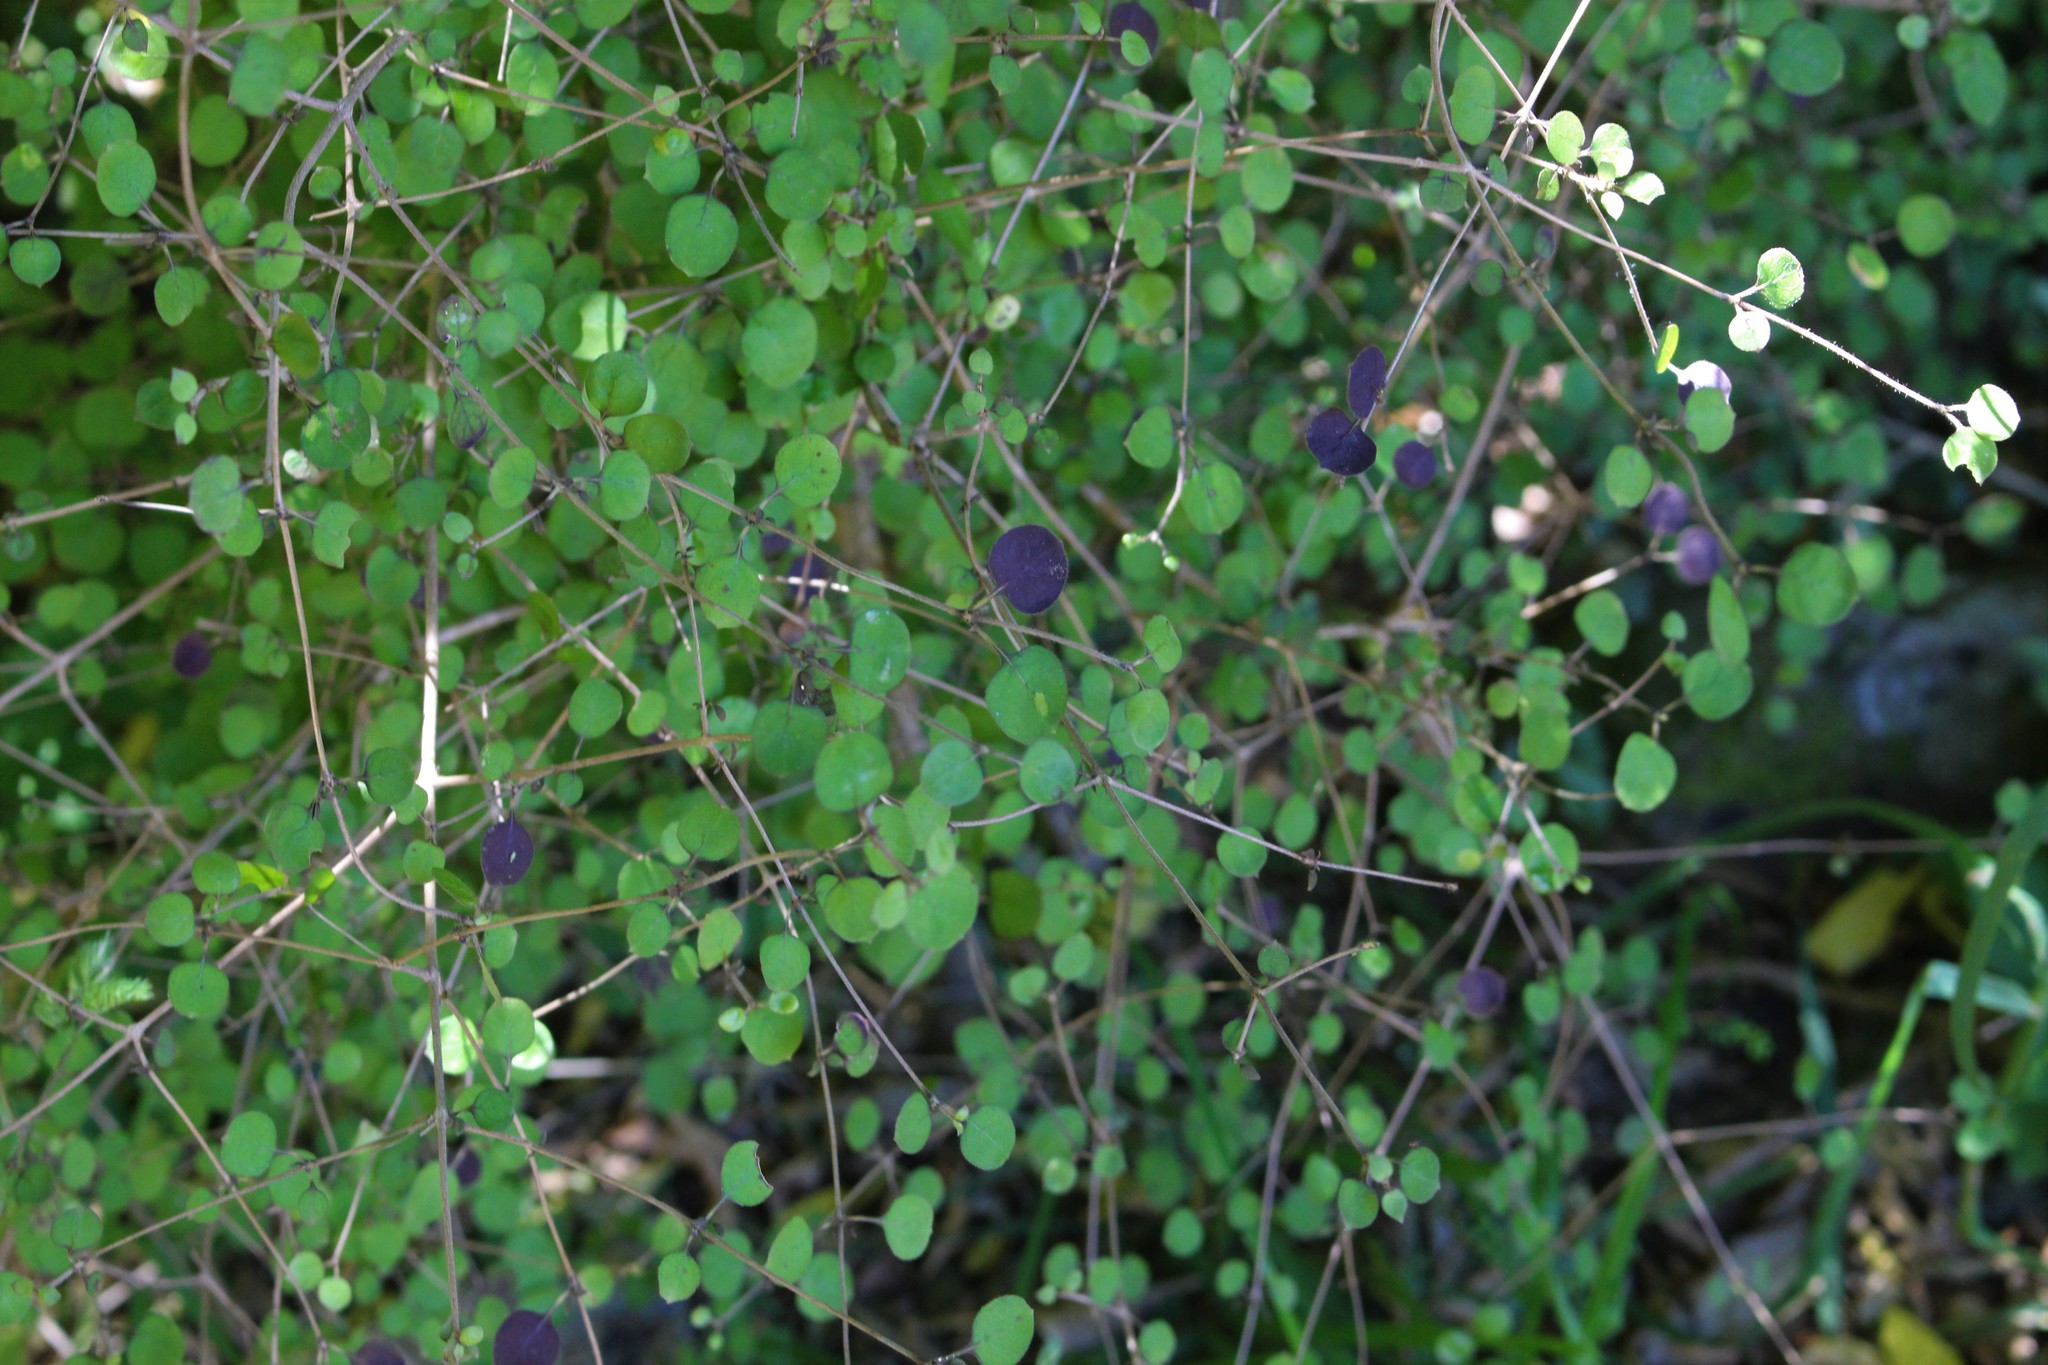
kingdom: Plantae
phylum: Tracheophyta
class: Magnoliopsida
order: Gentianales
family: Rubiaceae
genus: Coprosma
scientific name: Coprosma rotundifolia
